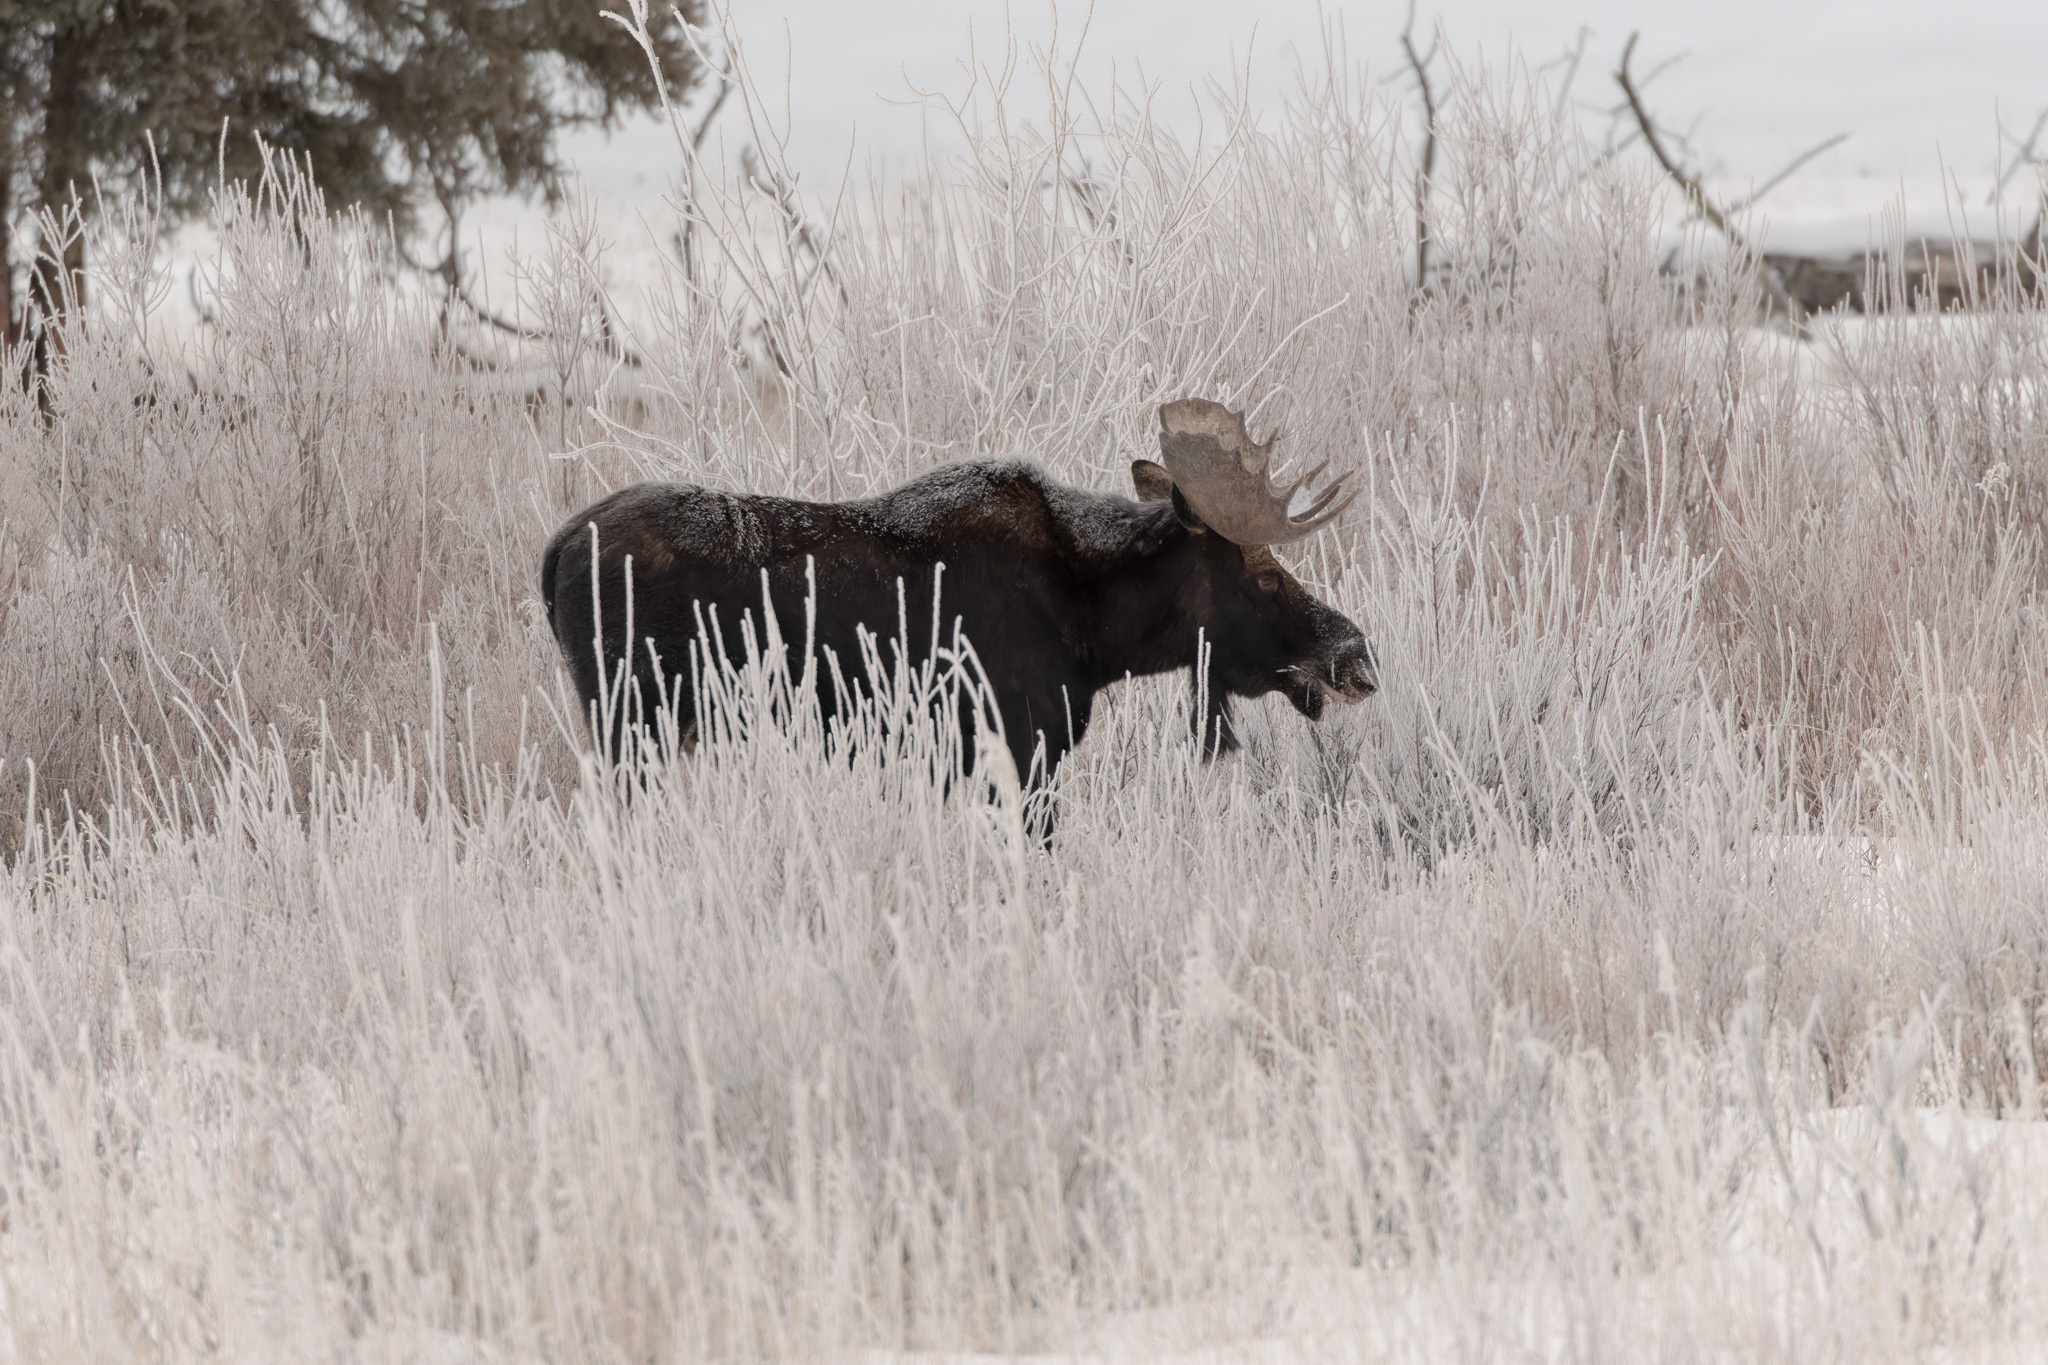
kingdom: Animalia
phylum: Chordata
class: Mammalia
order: Artiodactyla
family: Cervidae
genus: Alces
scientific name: Alces alces
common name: Moose
